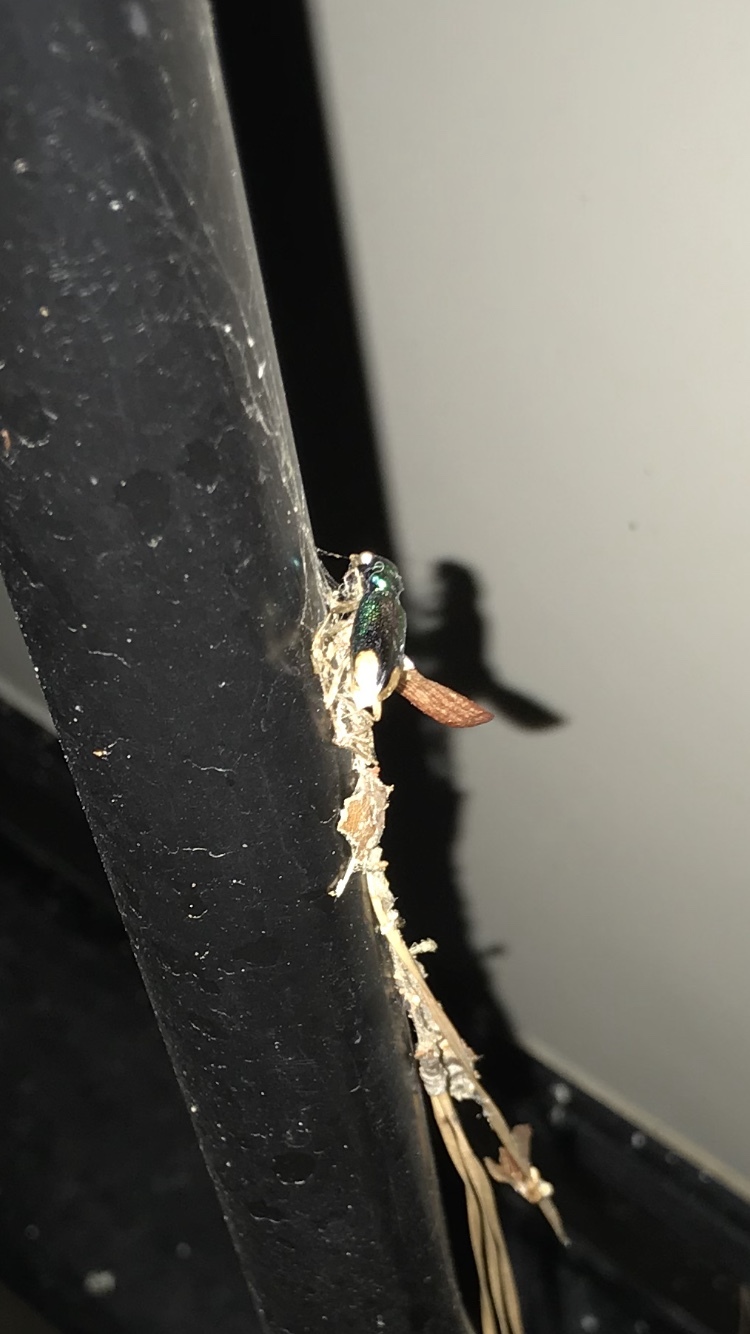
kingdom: Animalia
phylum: Arthropoda
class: Insecta
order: Coleoptera
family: Carabidae
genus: Tetracha
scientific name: Tetracha carolina
